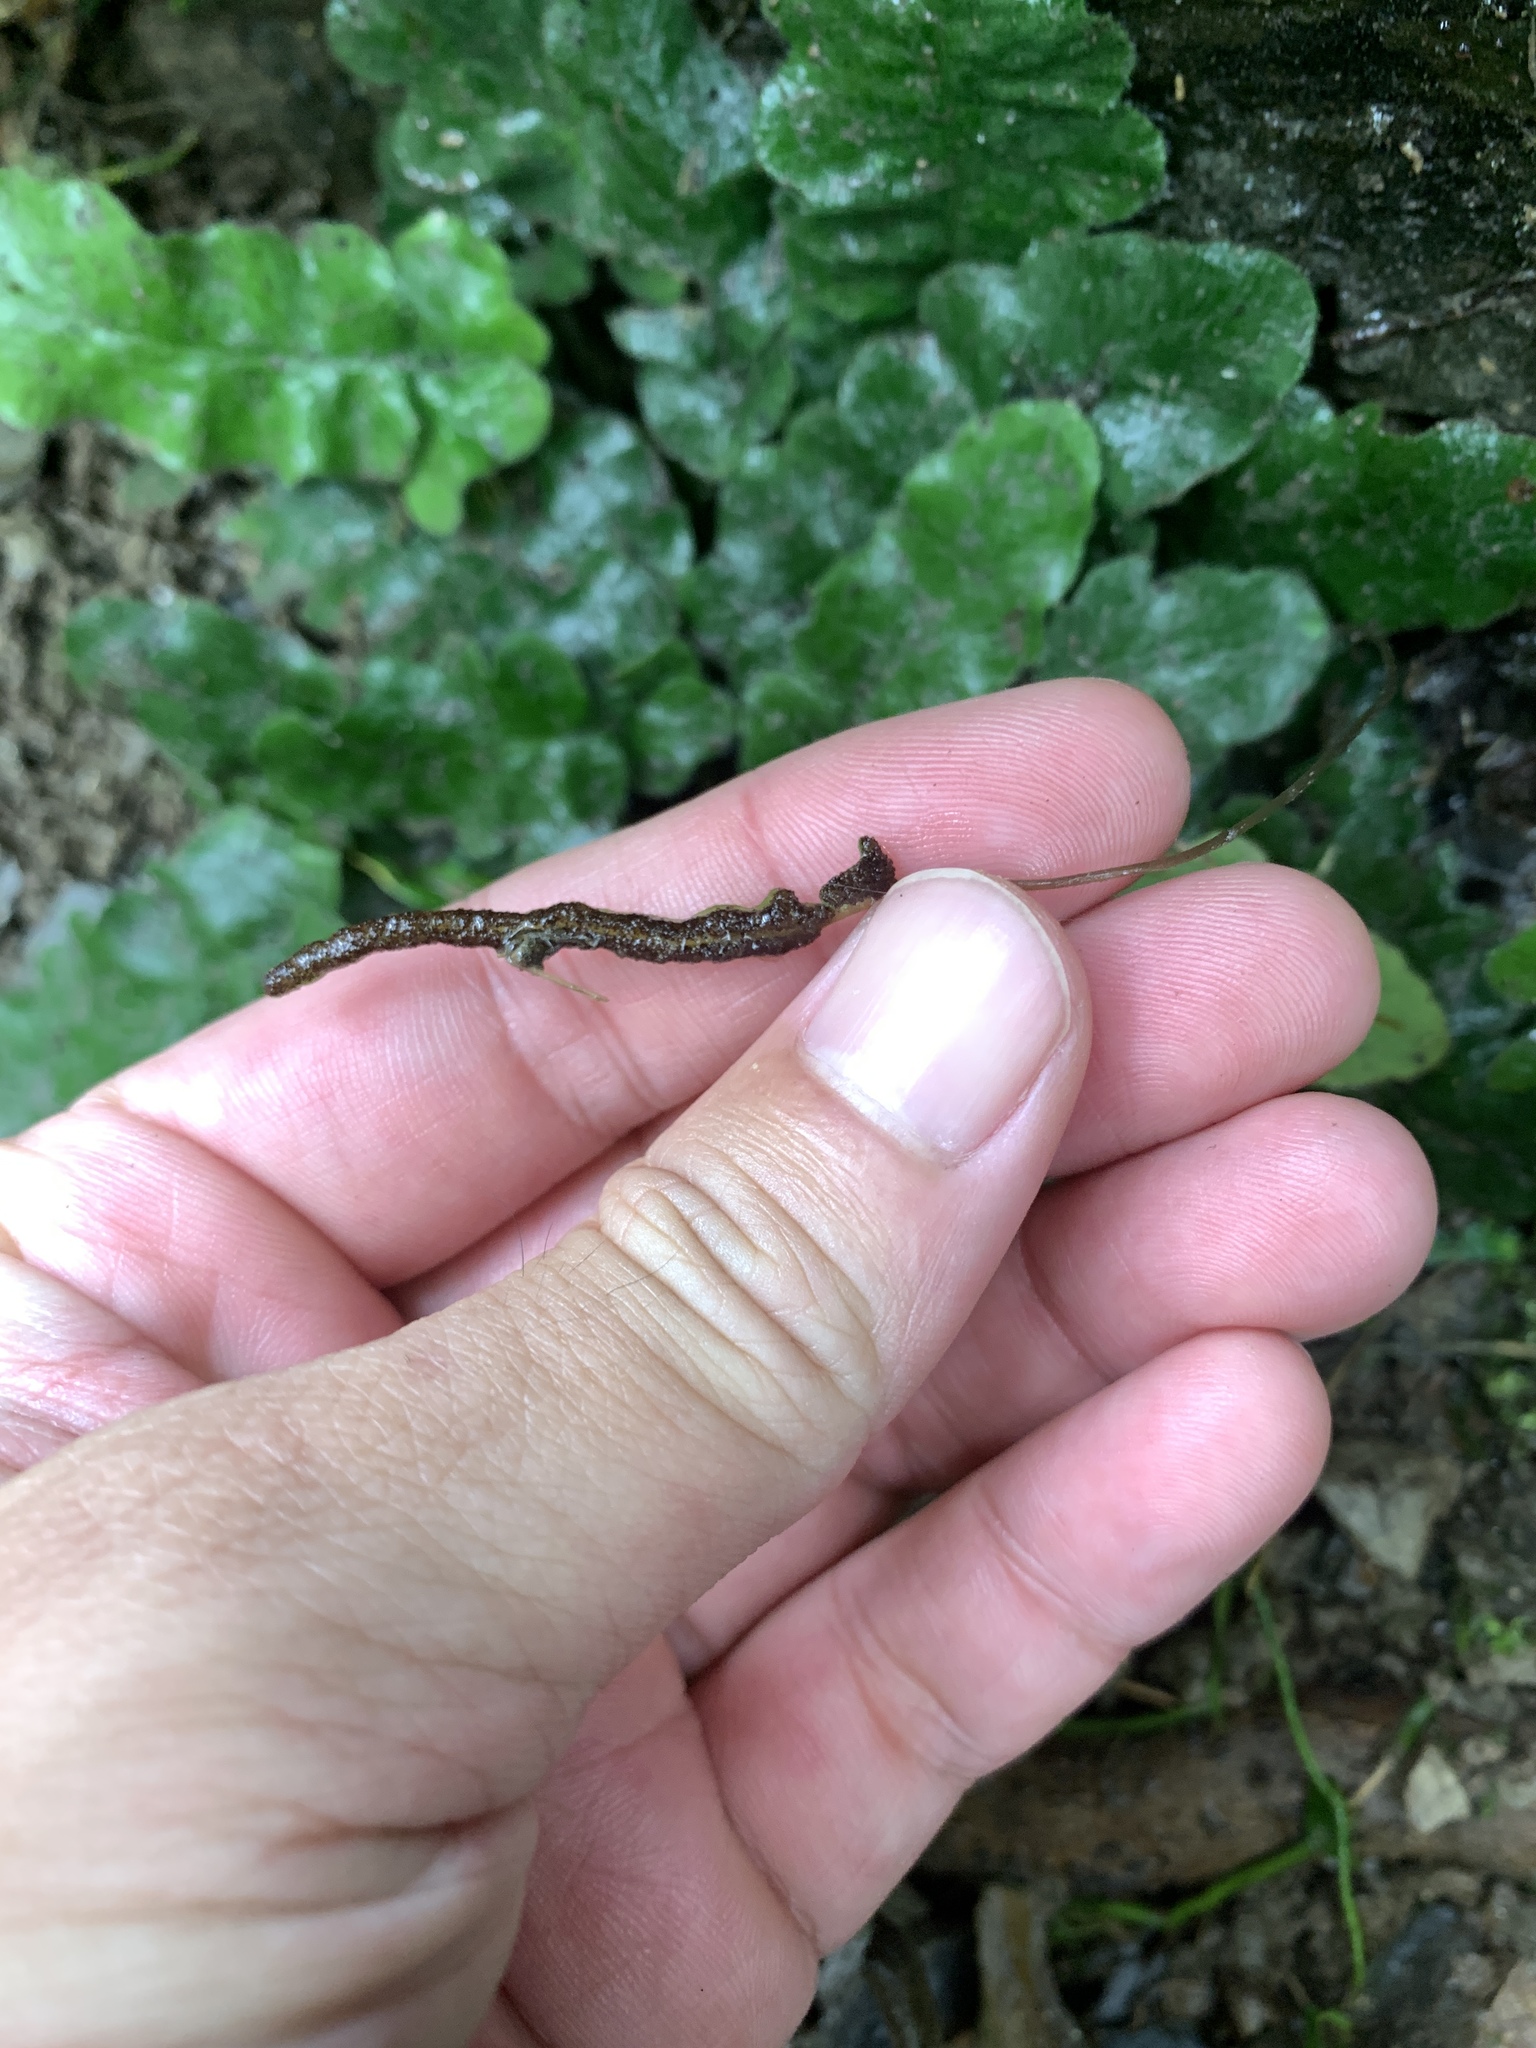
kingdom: Plantae
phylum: Tracheophyta
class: Polypodiopsida
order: Polypodiales
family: Tectariaceae
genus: Tectaria
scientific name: Tectaria zeilanica
